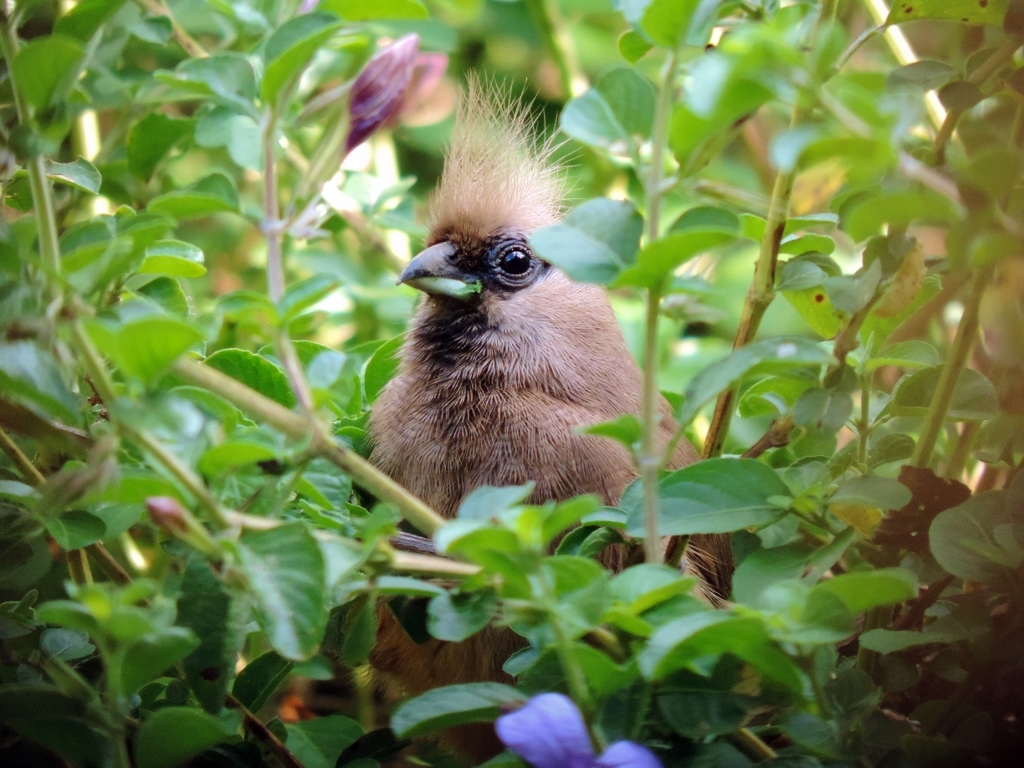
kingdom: Animalia
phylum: Chordata
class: Aves
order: Coliiformes
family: Coliidae
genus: Colius
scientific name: Colius striatus
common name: Speckled mousebird
